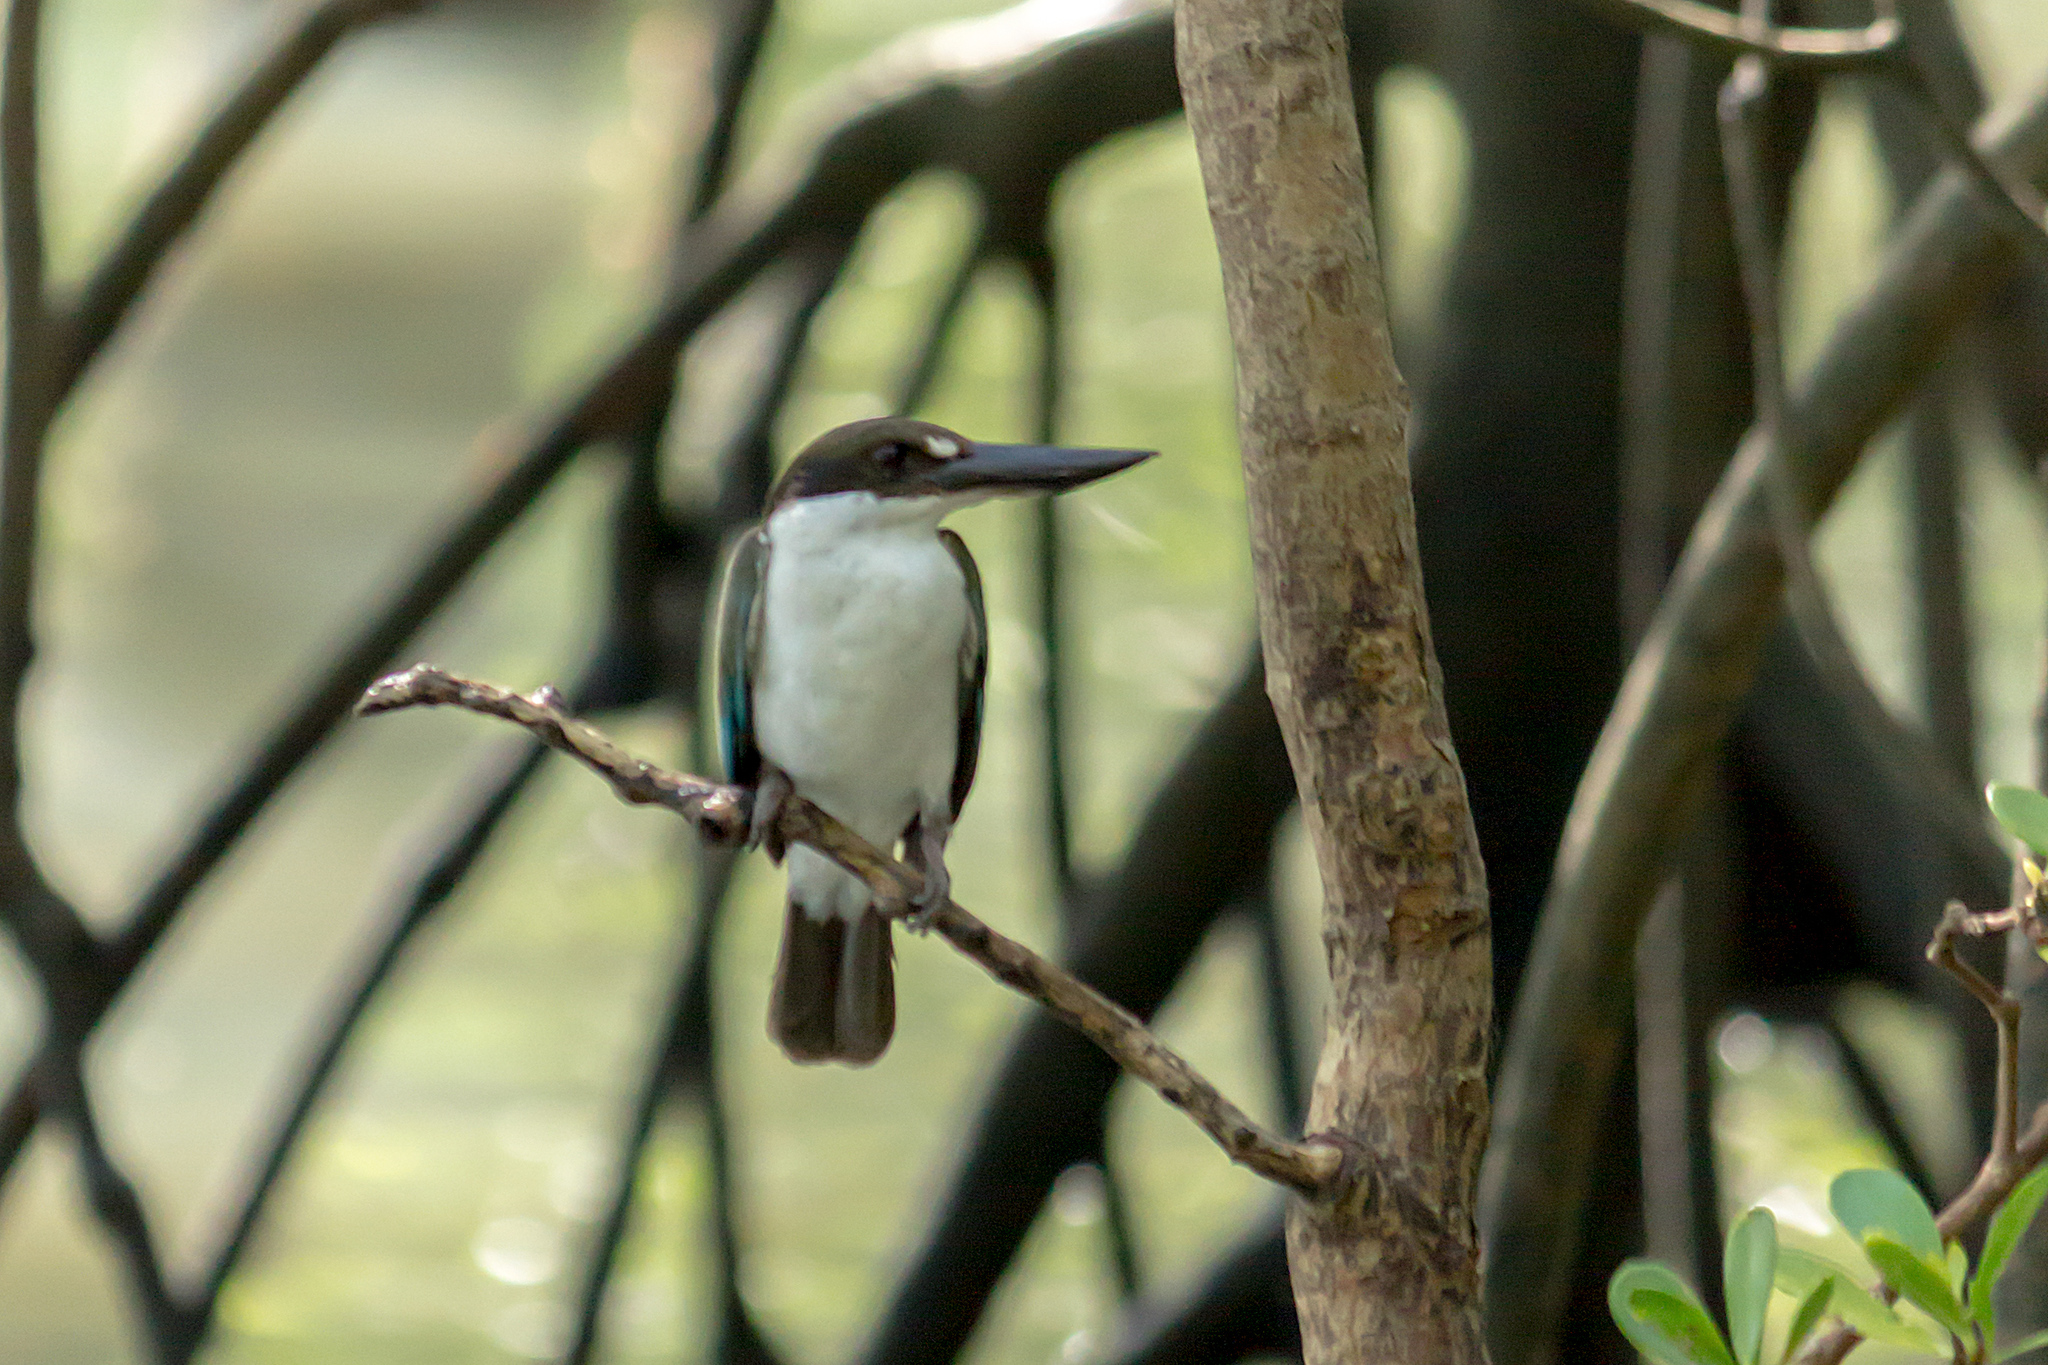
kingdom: Animalia
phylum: Chordata
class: Aves
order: Coraciiformes
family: Alcedinidae
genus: Todiramphus
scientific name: Todiramphus sordidus
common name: Torresian kingfisher
